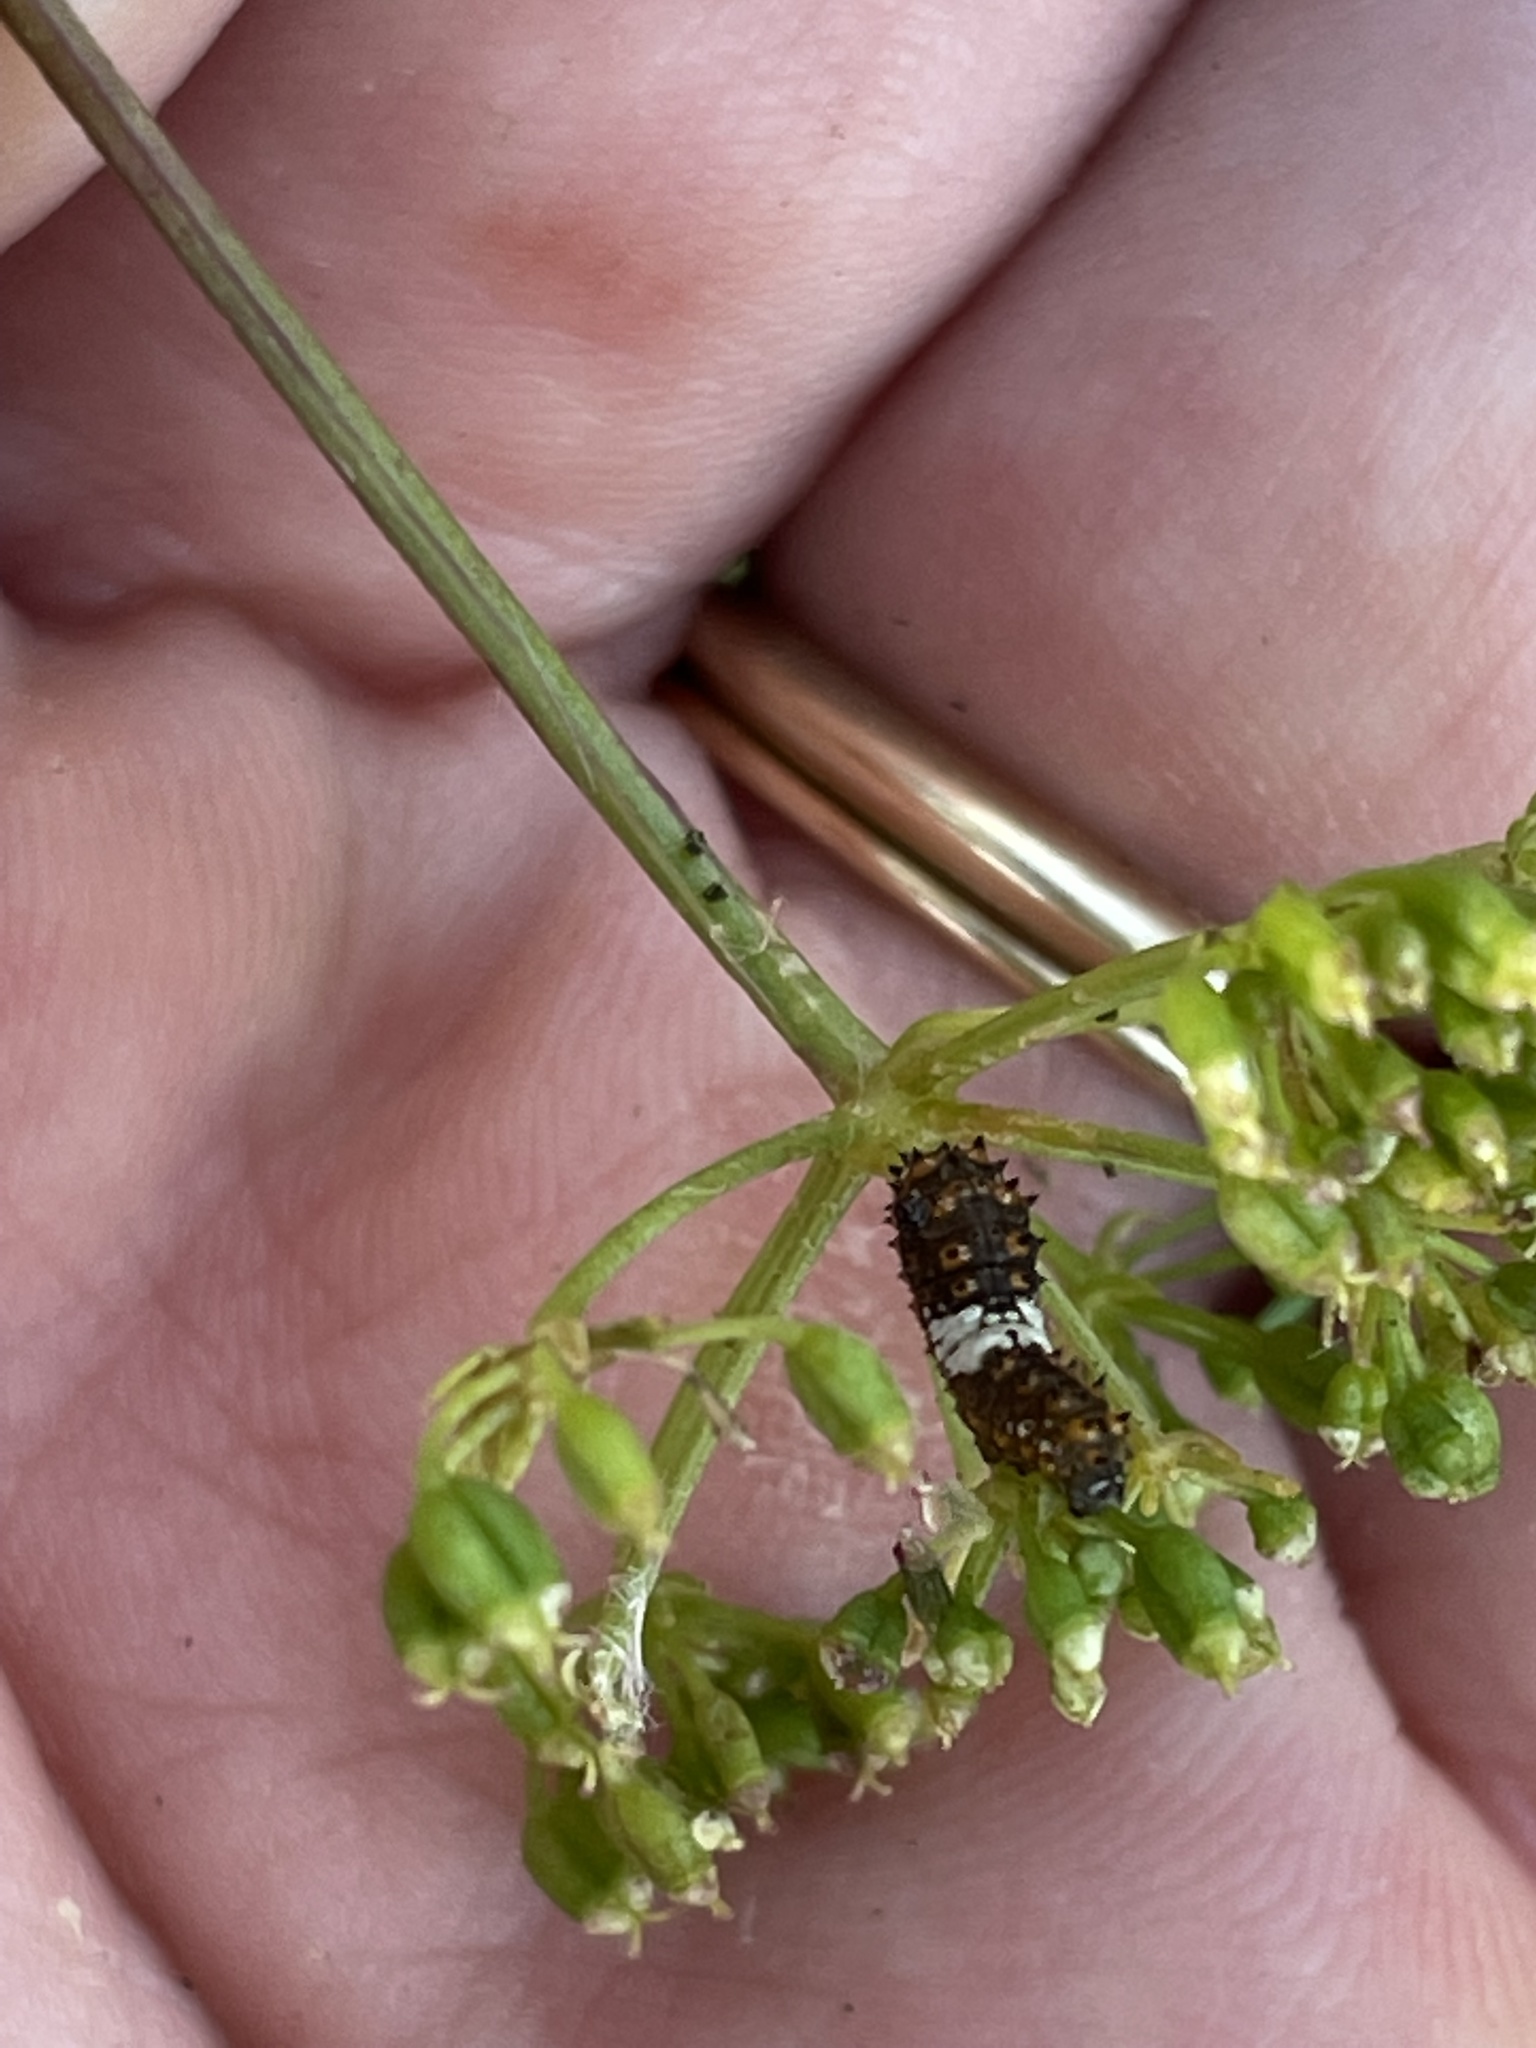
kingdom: Animalia
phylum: Arthropoda
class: Insecta
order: Lepidoptera
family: Papilionidae
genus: Papilio
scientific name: Papilio polyxenes
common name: Black swallowtail
